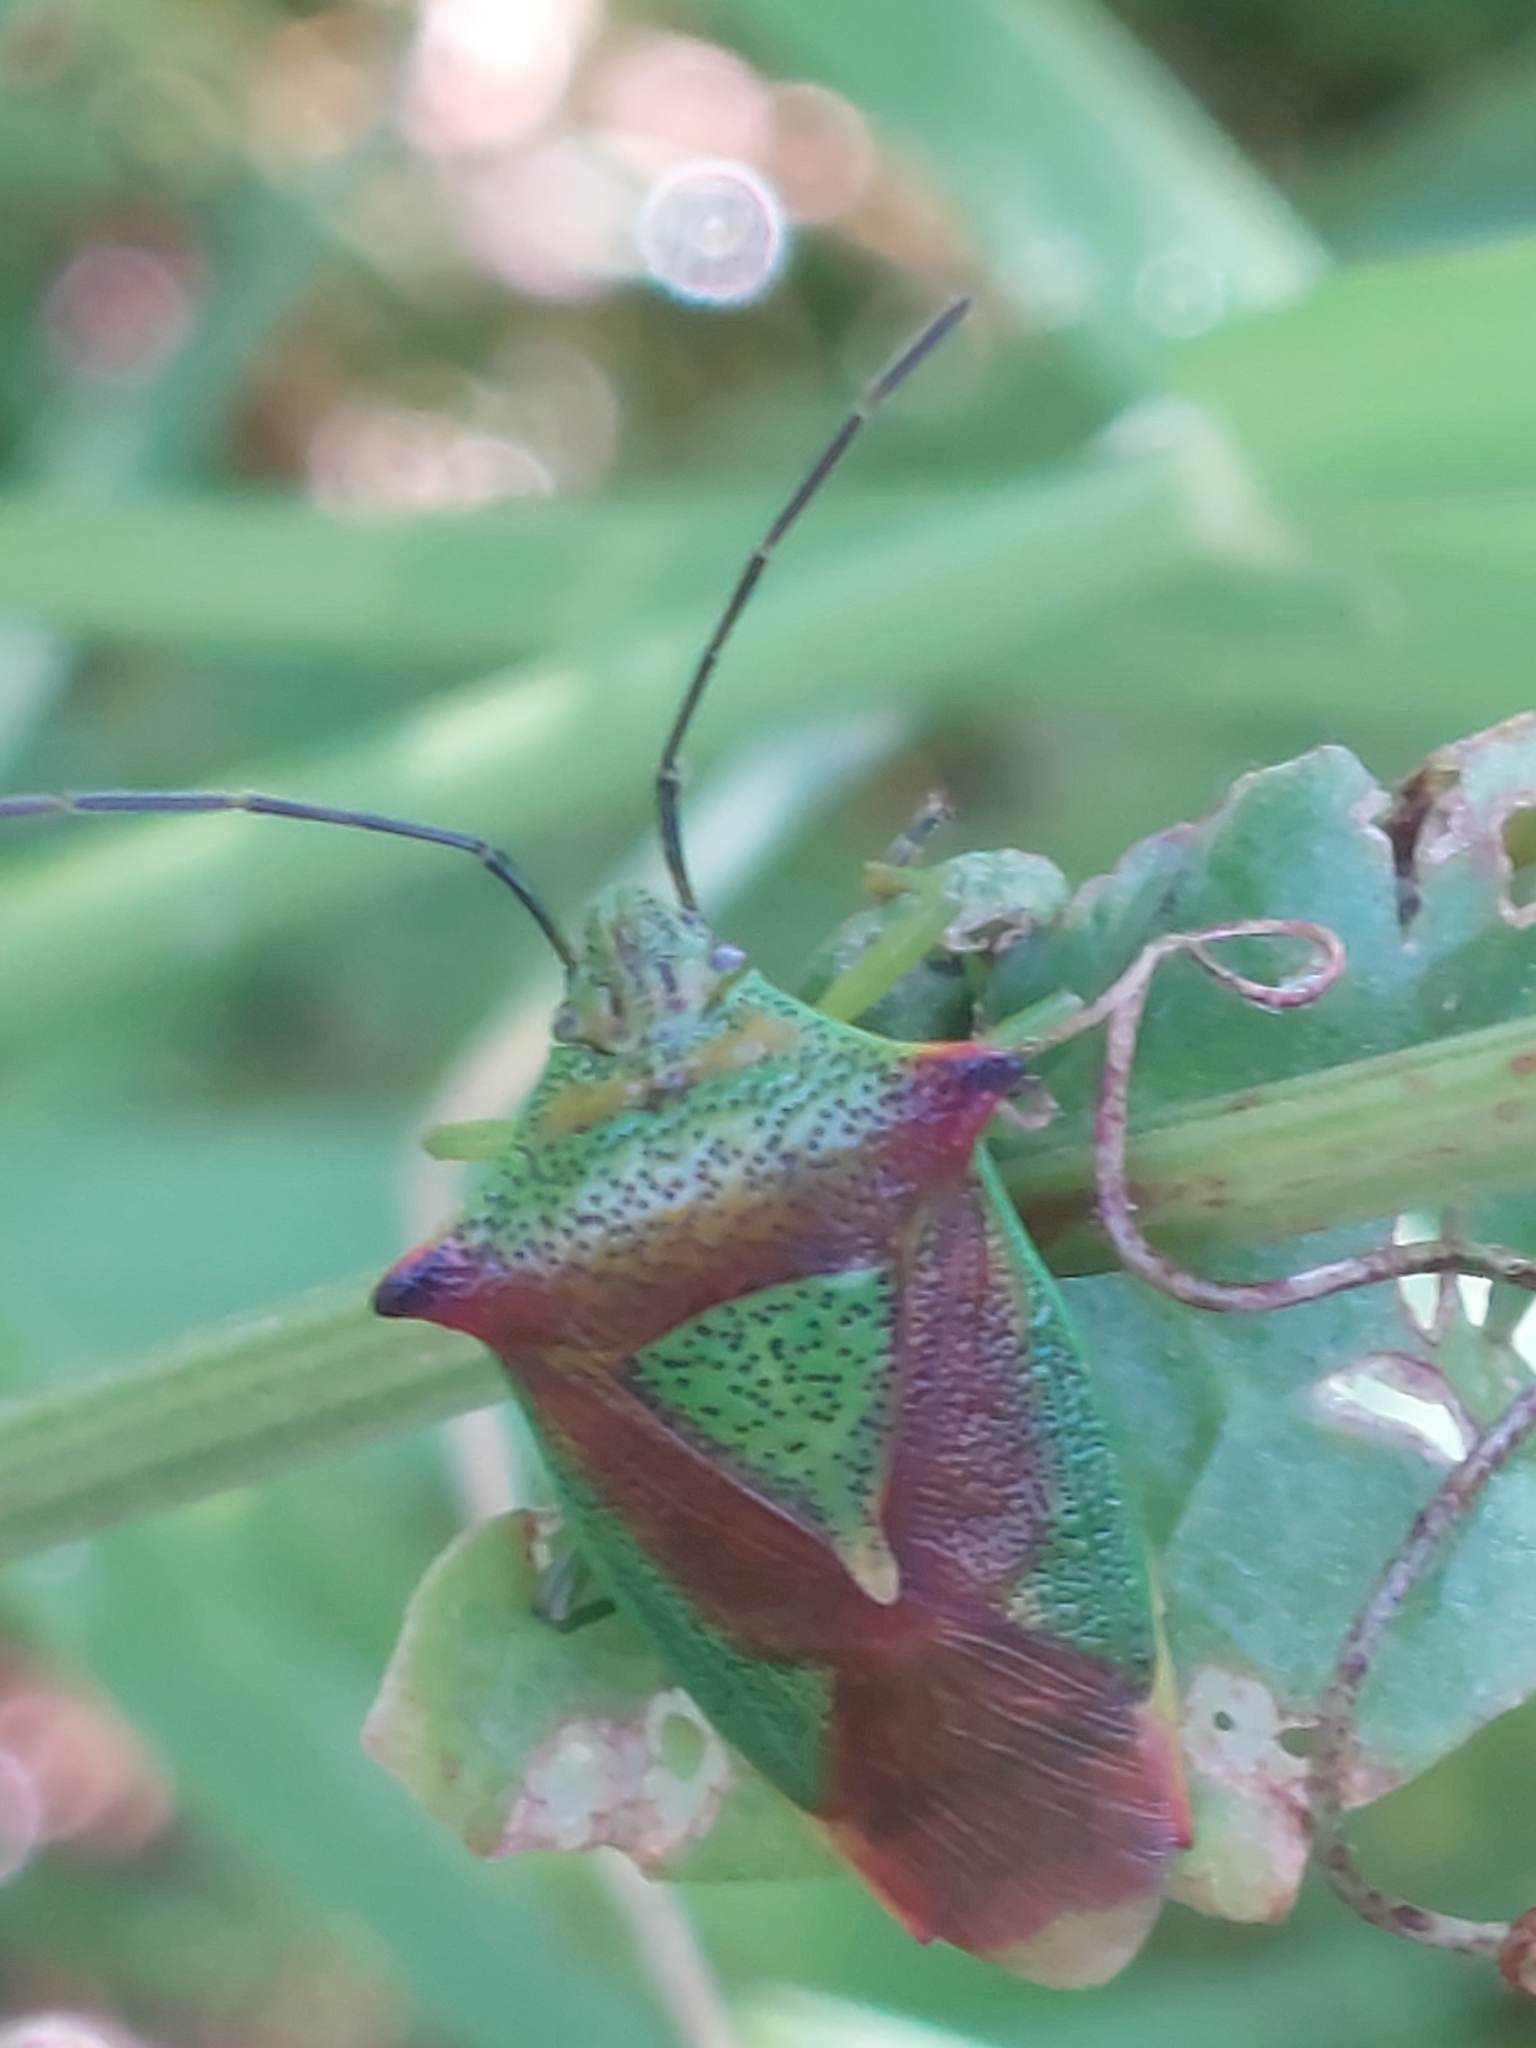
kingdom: Animalia
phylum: Arthropoda
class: Insecta
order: Hemiptera
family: Acanthosomatidae
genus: Acanthosoma
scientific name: Acanthosoma haemorrhoidale
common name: Hawthorn shieldbug
